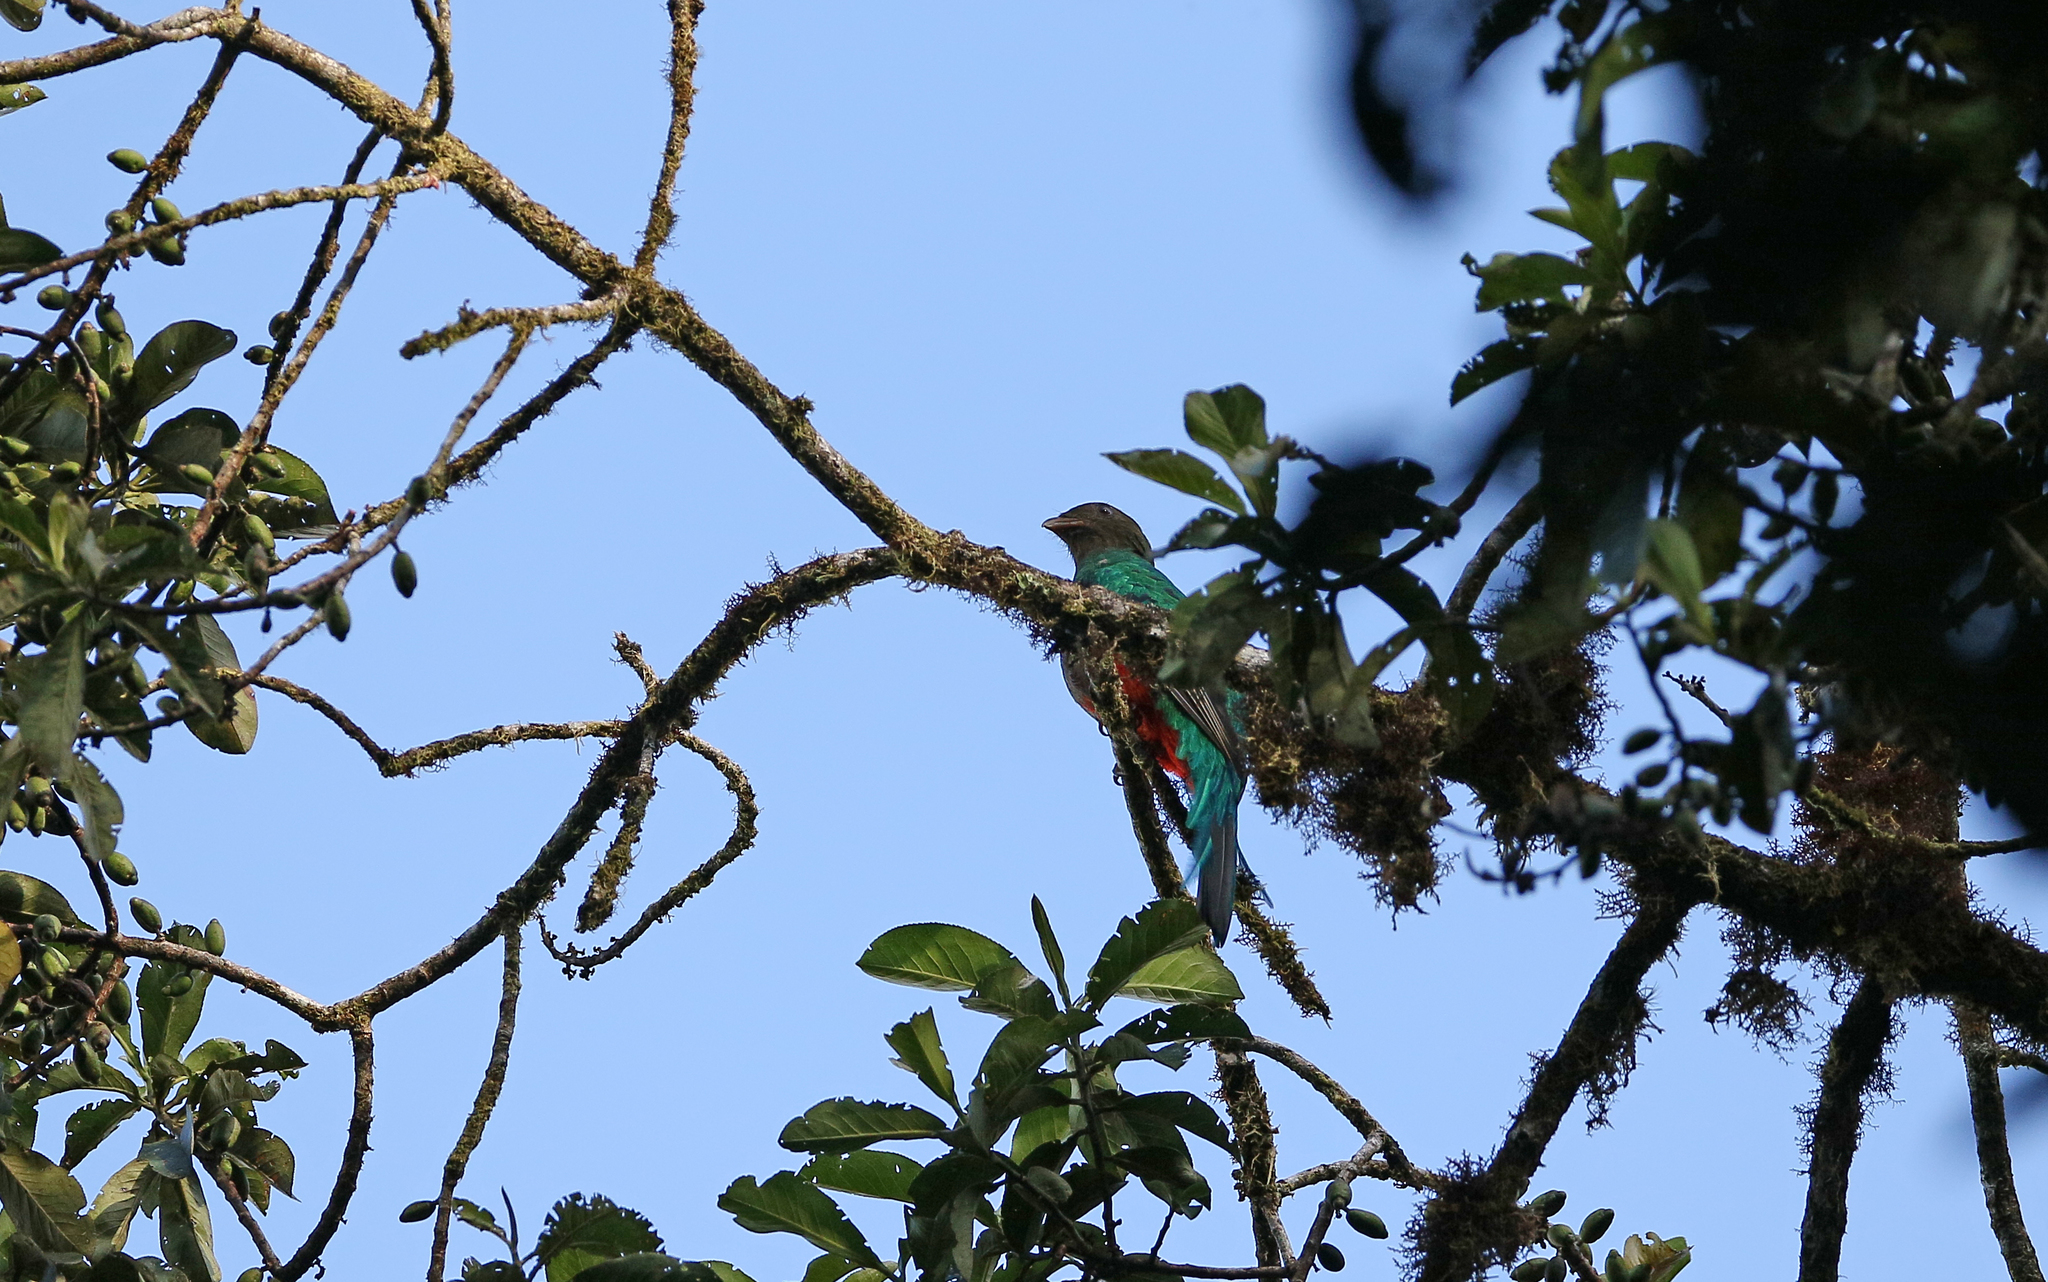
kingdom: Animalia
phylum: Chordata
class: Aves
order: Trogoniformes
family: Trogonidae
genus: Pharomachrus
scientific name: Pharomachrus antisianus
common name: Crested quetzal
